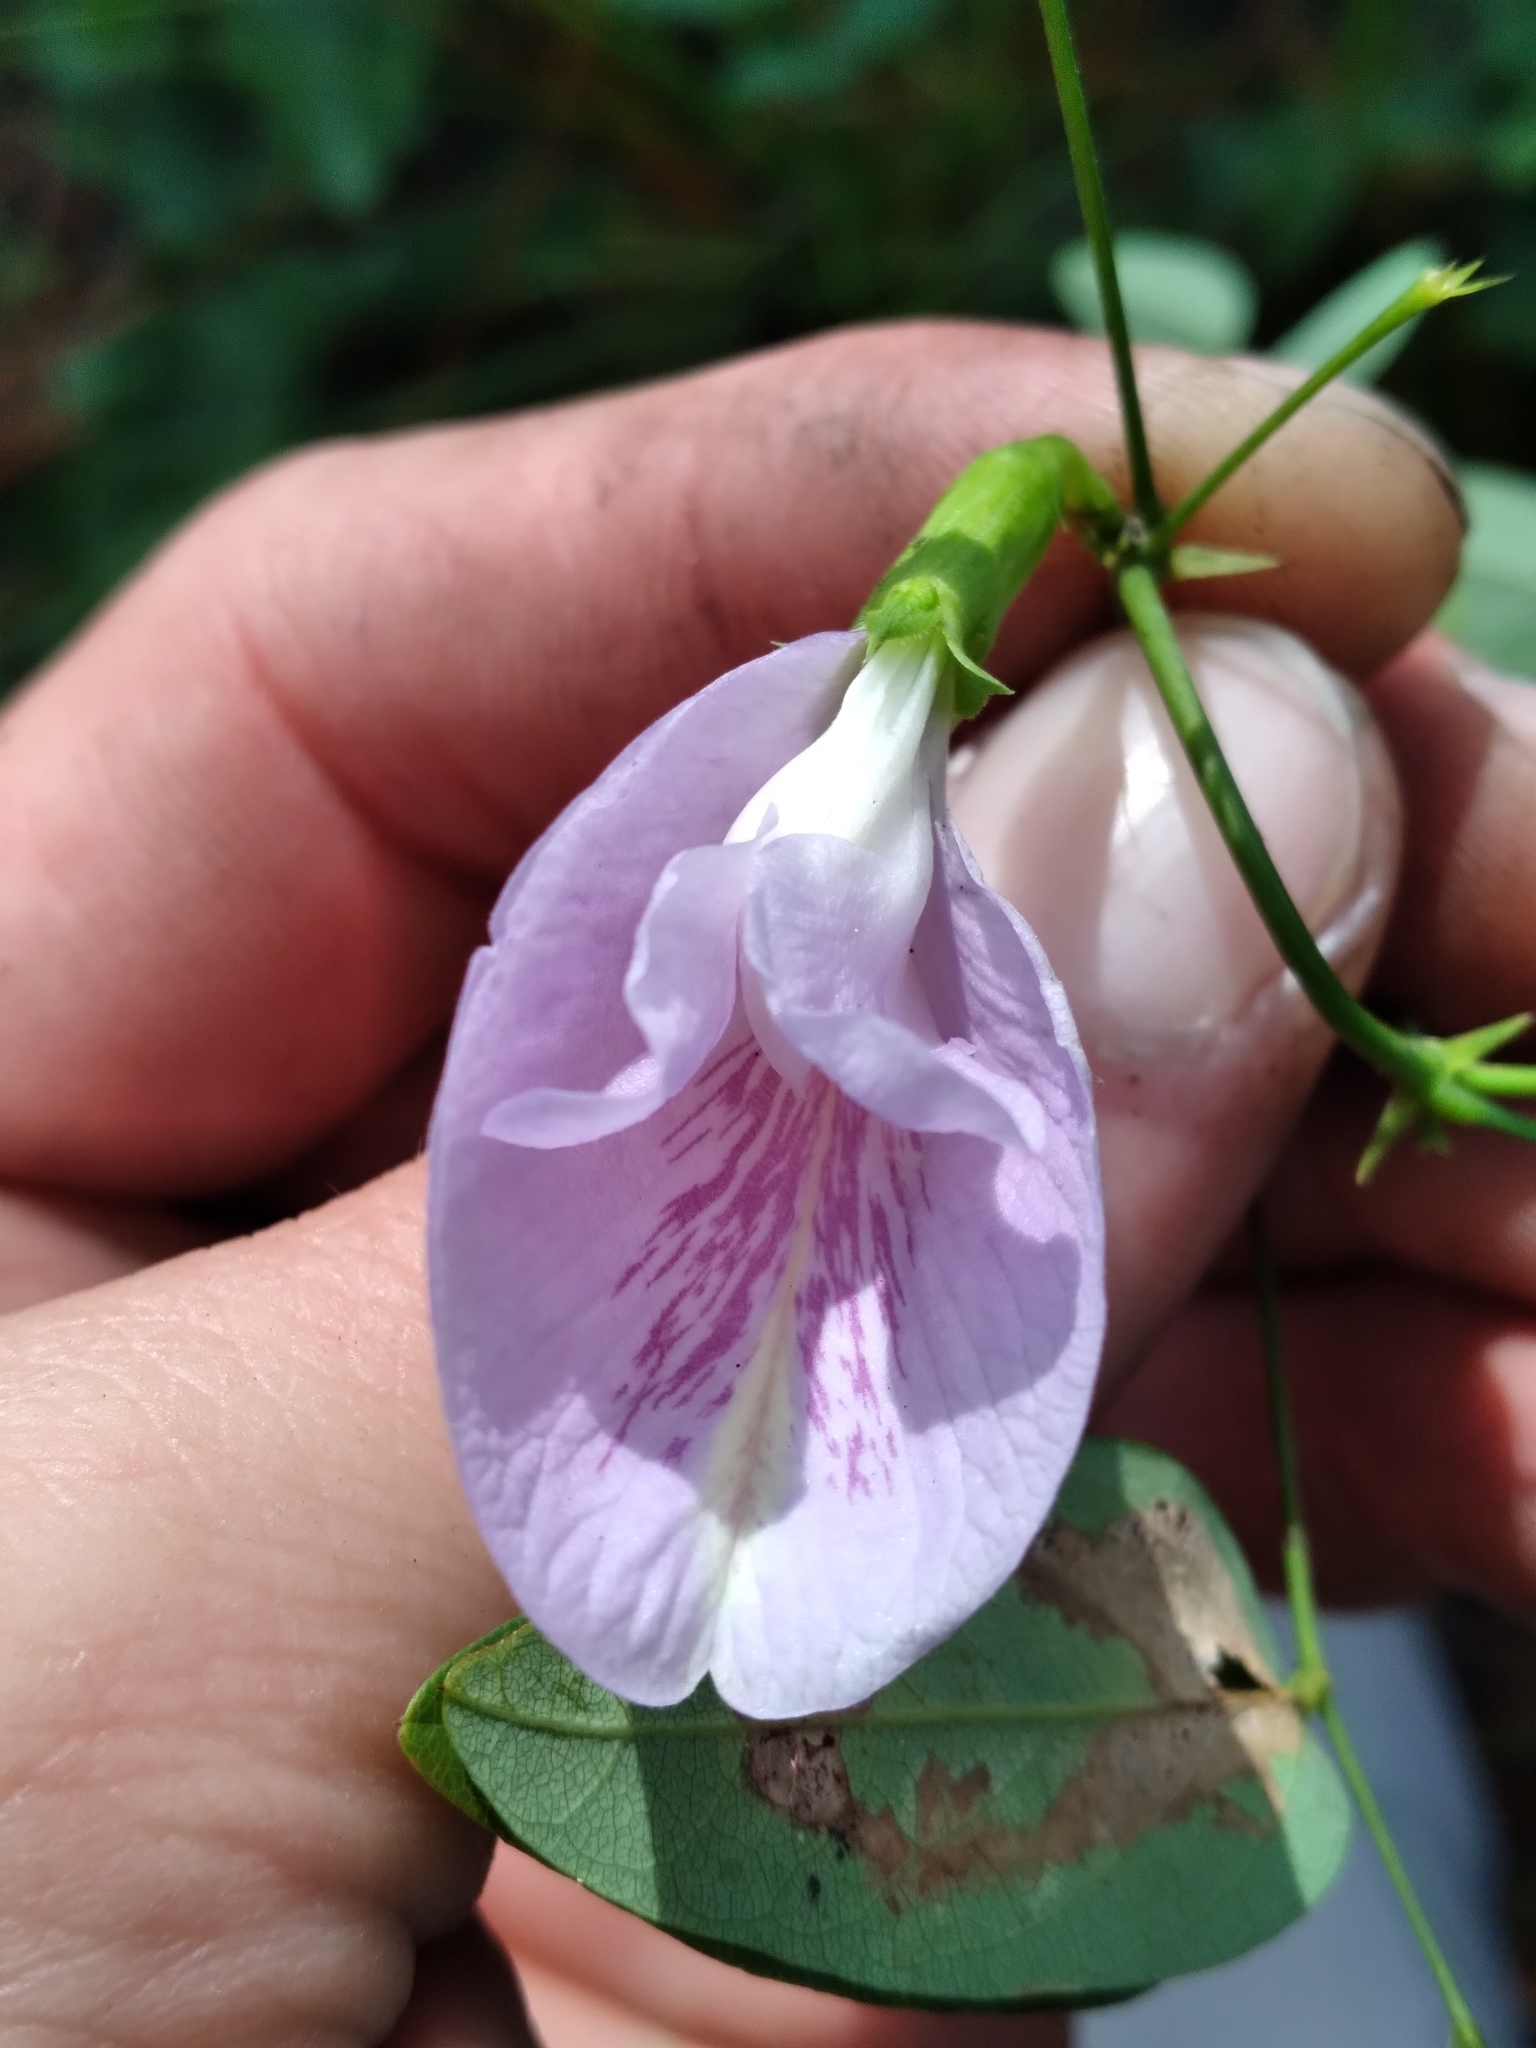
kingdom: Plantae
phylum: Tracheophyta
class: Magnoliopsida
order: Fabales
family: Fabaceae
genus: Clitoria
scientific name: Clitoria mariana
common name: Butterfly-pea
